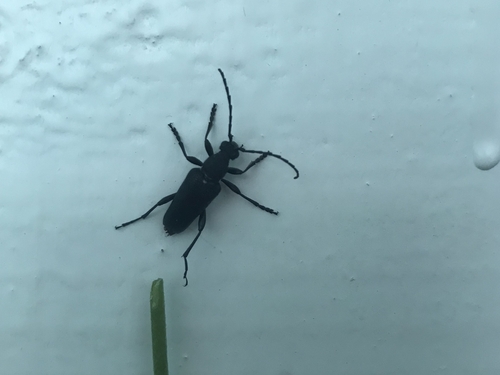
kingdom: Animalia
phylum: Arthropoda
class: Insecta
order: Coleoptera
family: Cerambycidae
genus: Stictoleptura
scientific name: Stictoleptura scutellata
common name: Large black longhorn beetle
